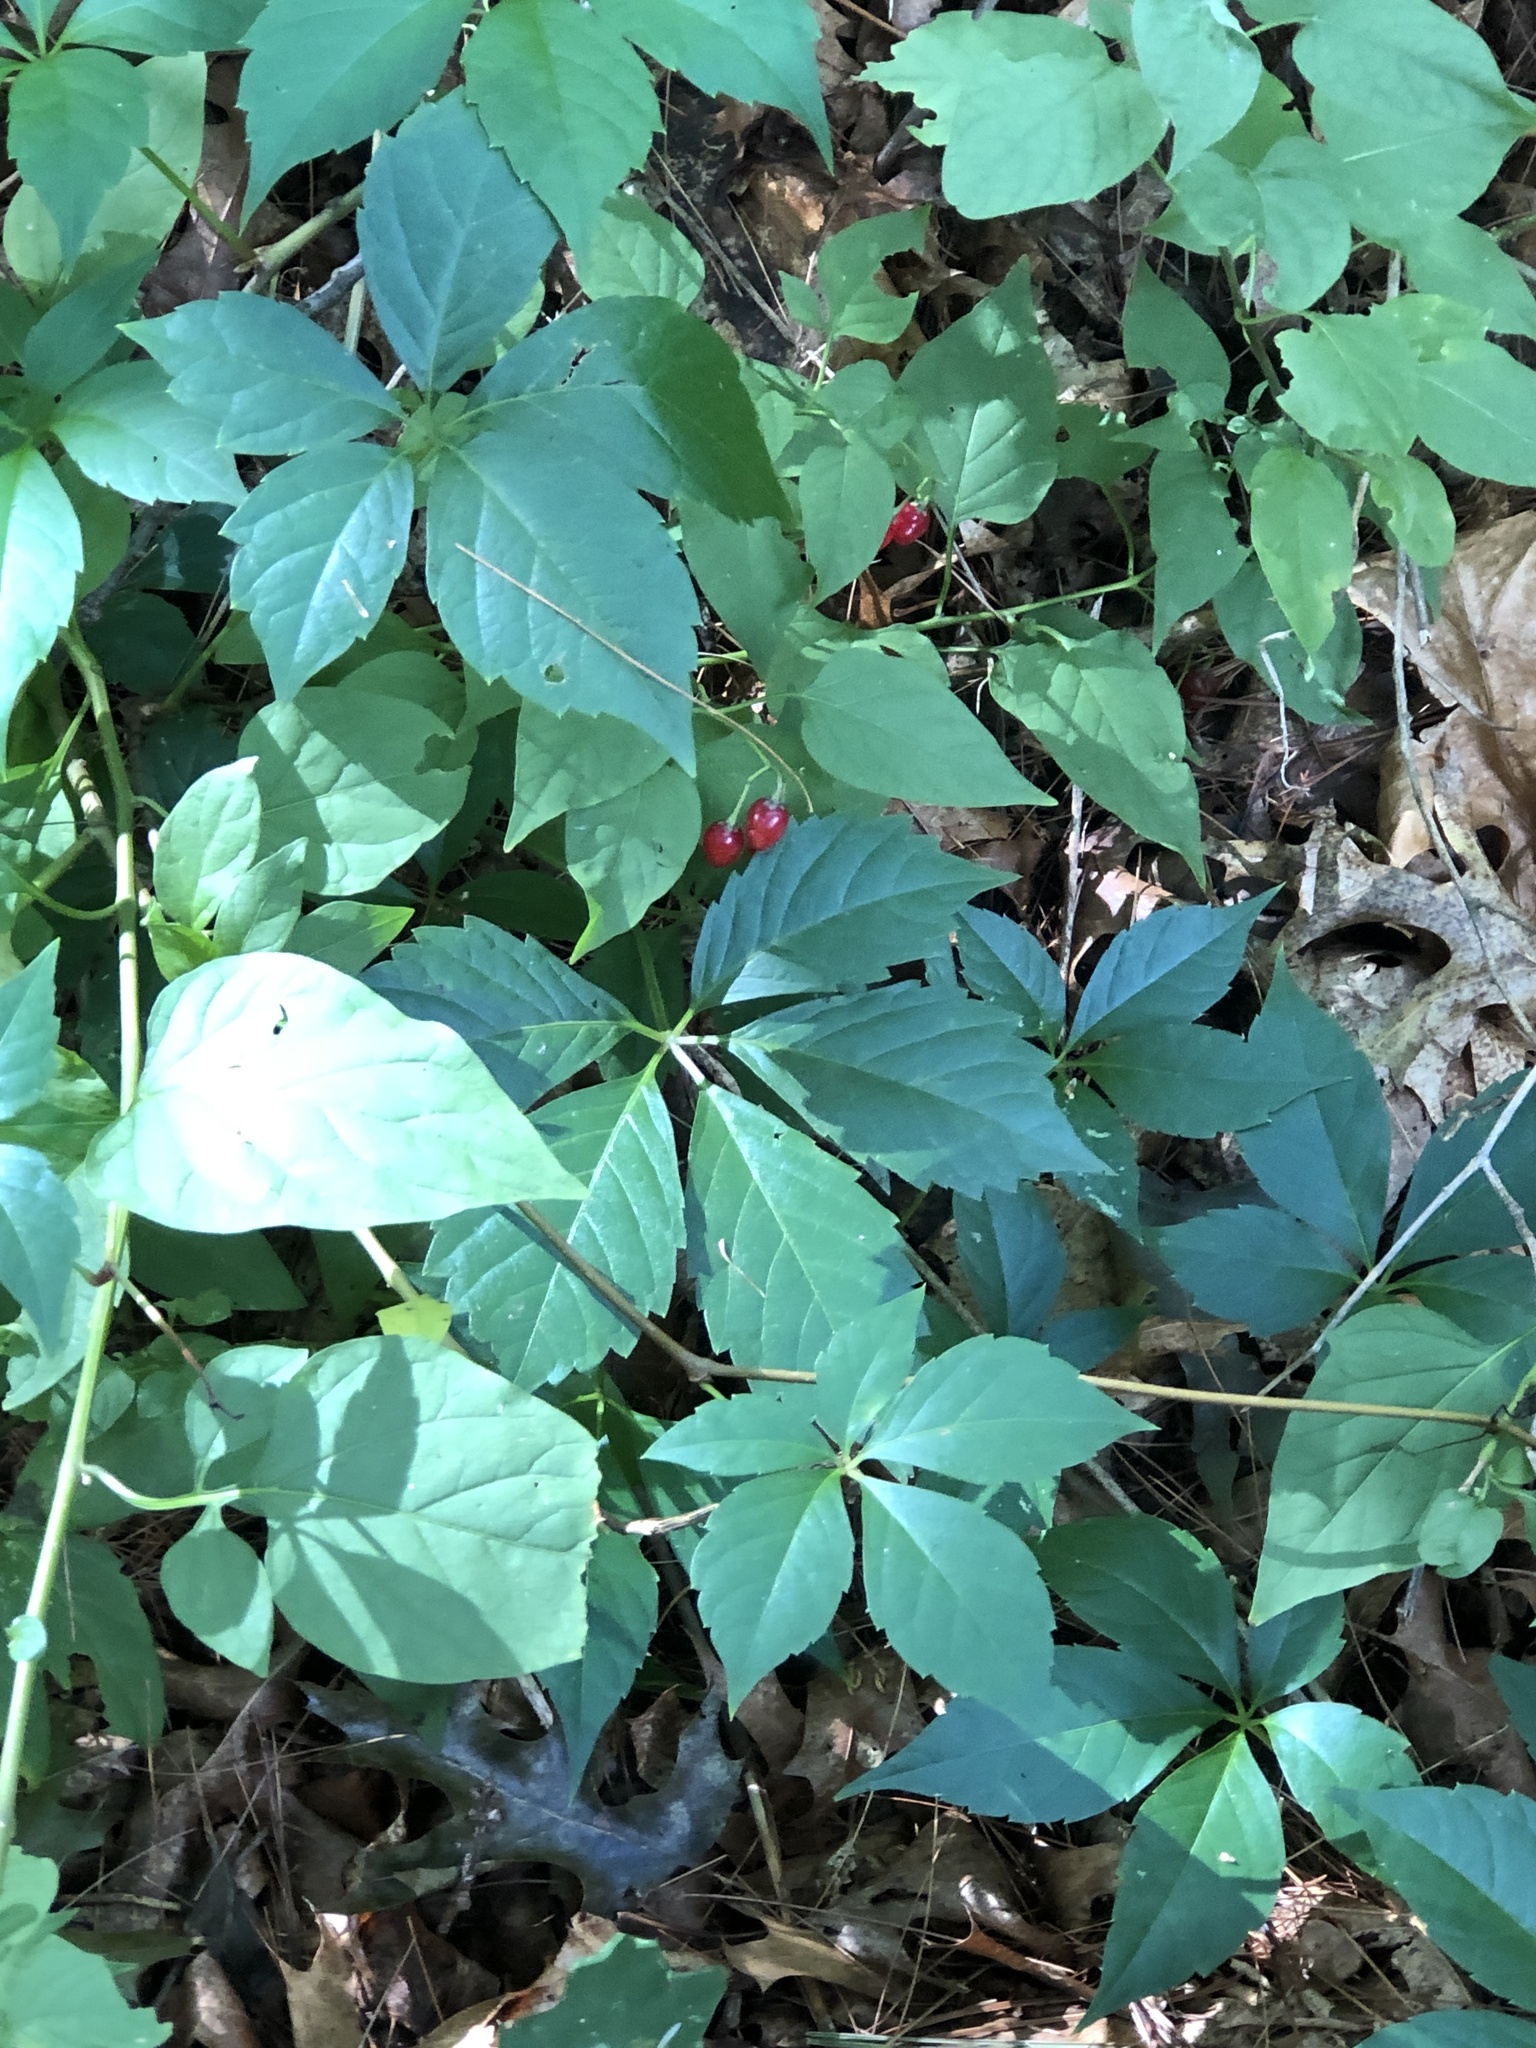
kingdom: Plantae
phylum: Tracheophyta
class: Magnoliopsida
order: Vitales
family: Vitaceae
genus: Parthenocissus
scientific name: Parthenocissus quinquefolia
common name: Virginia-creeper
